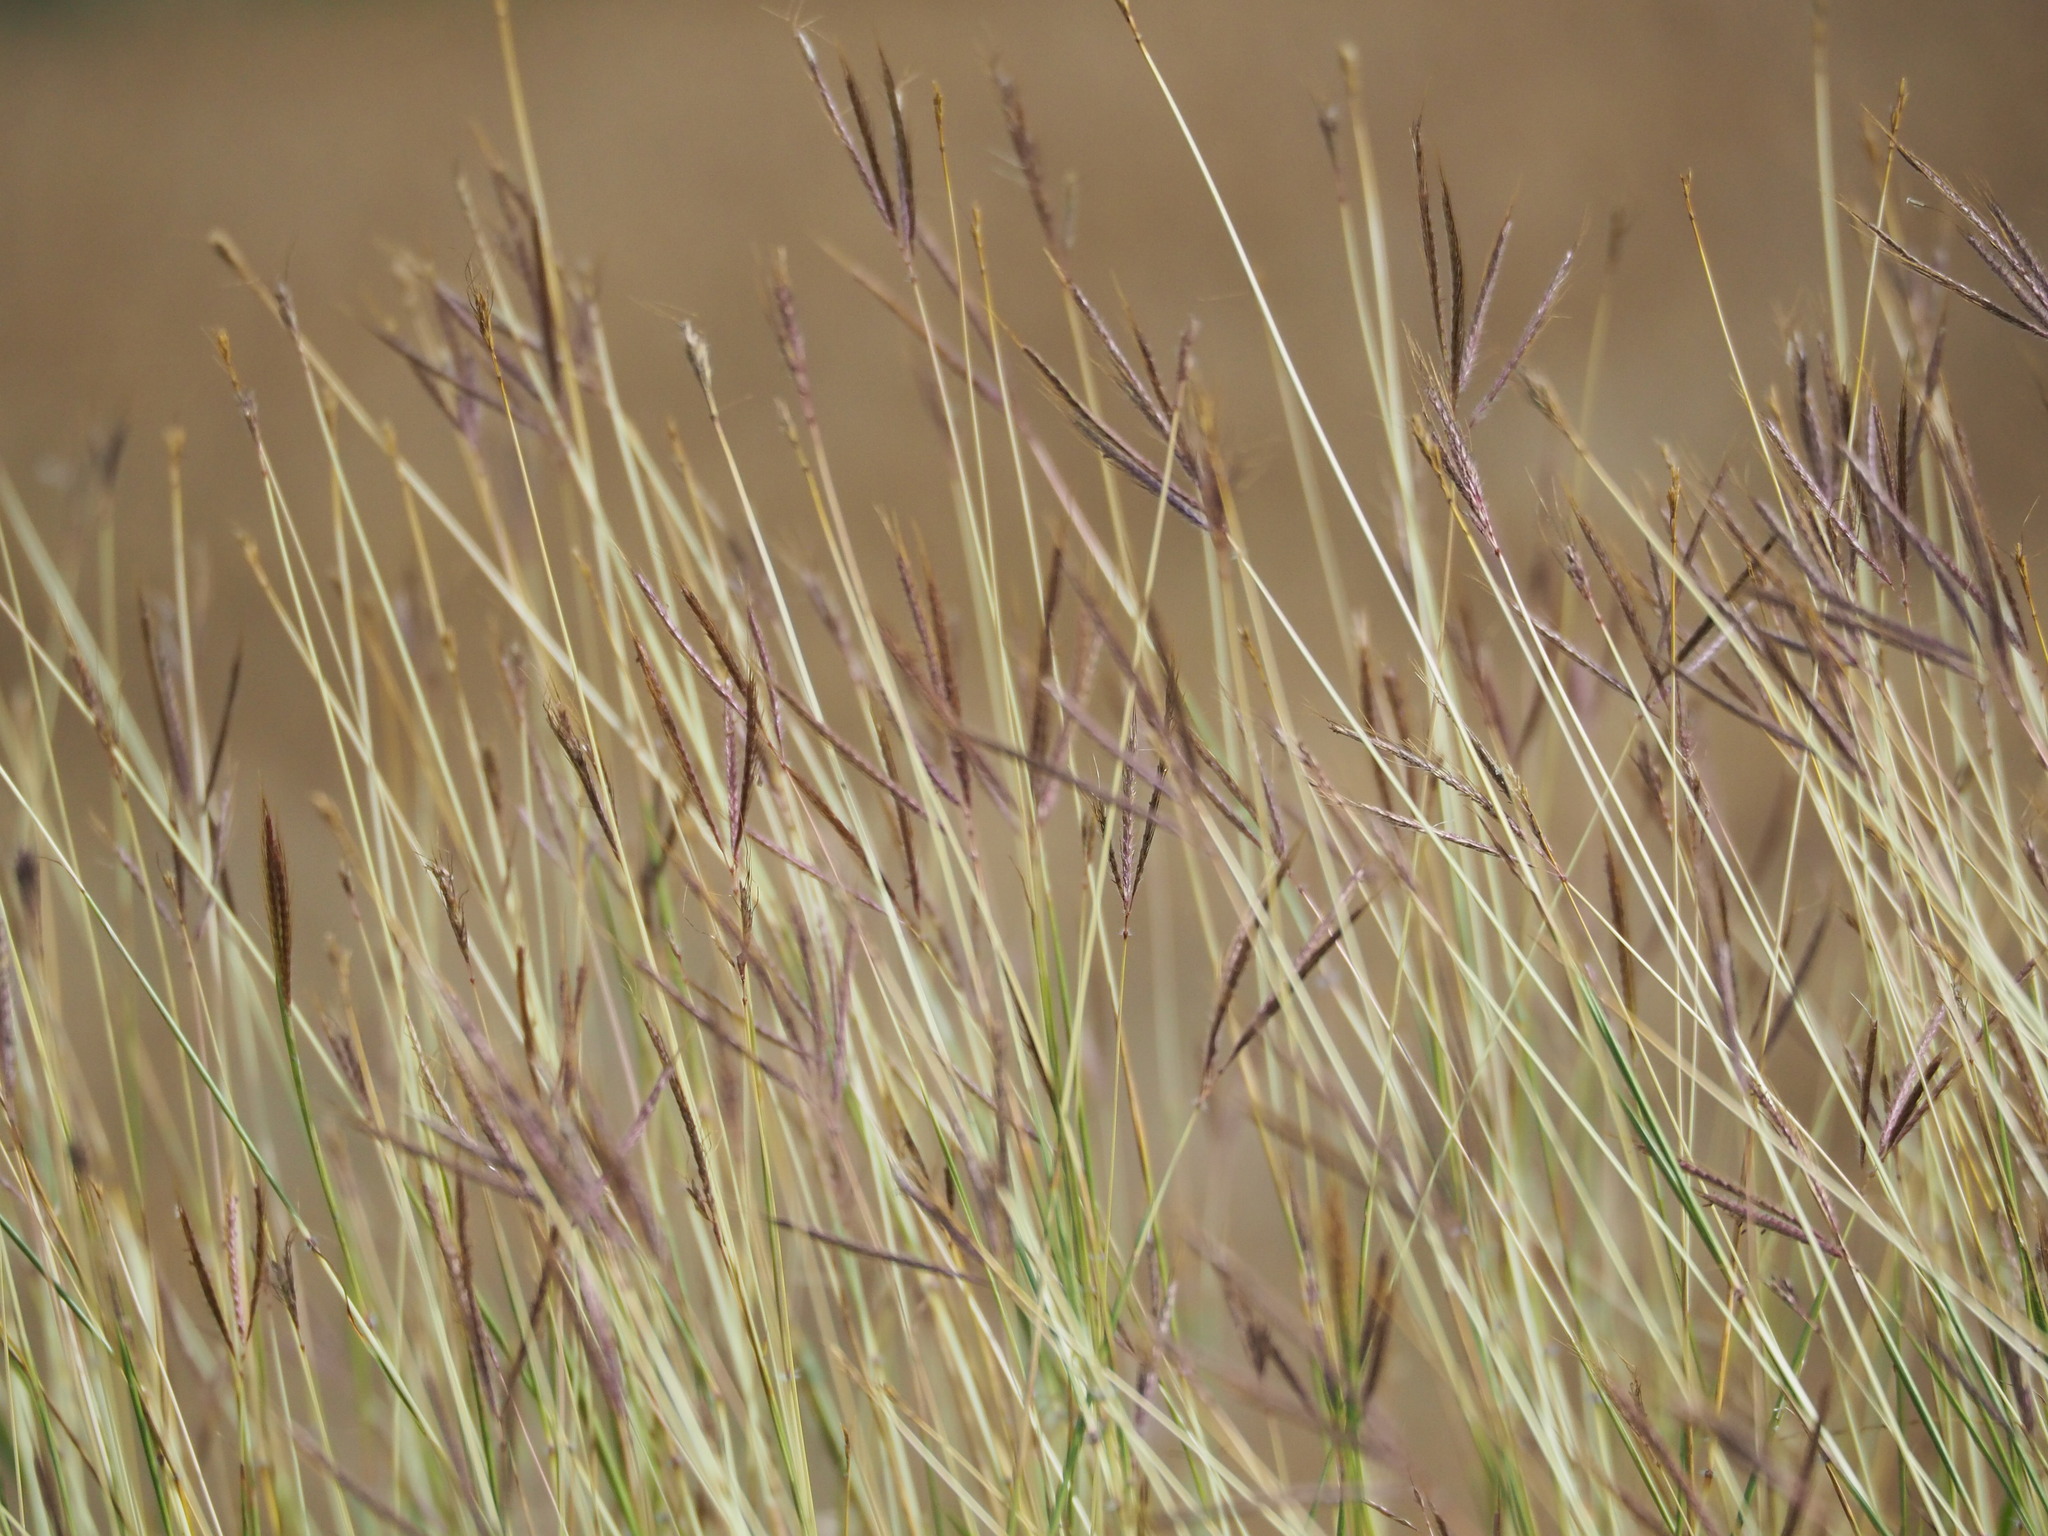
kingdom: Plantae
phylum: Tracheophyta
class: Liliopsida
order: Poales
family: Poaceae
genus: Dichanthium
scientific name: Dichanthium annulatum
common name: Kleberg's bluestem
